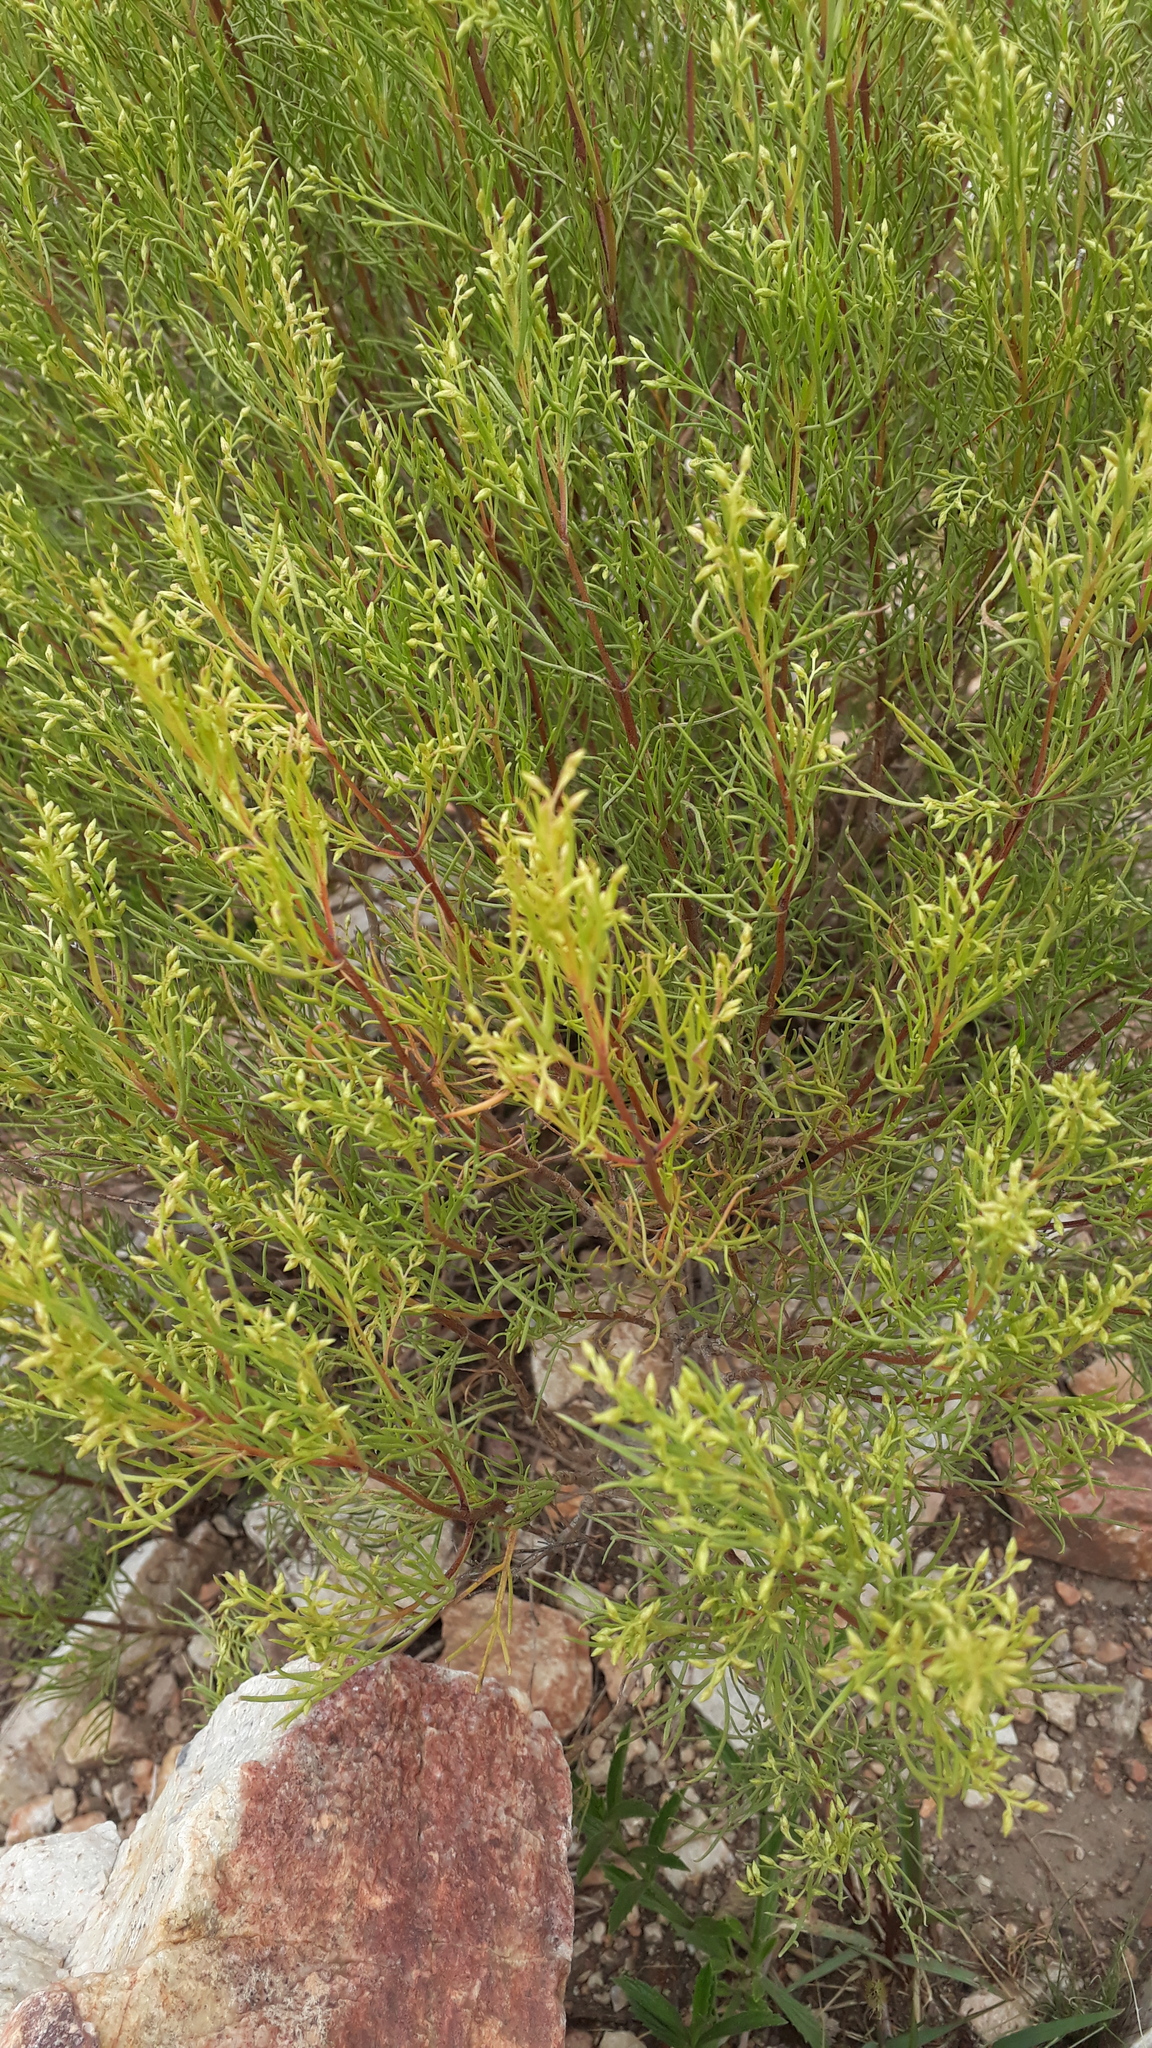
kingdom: Plantae
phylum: Tracheophyta
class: Magnoliopsida
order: Asterales
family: Asteraceae
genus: Acanthostyles
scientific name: Acanthostyles buniifolius
